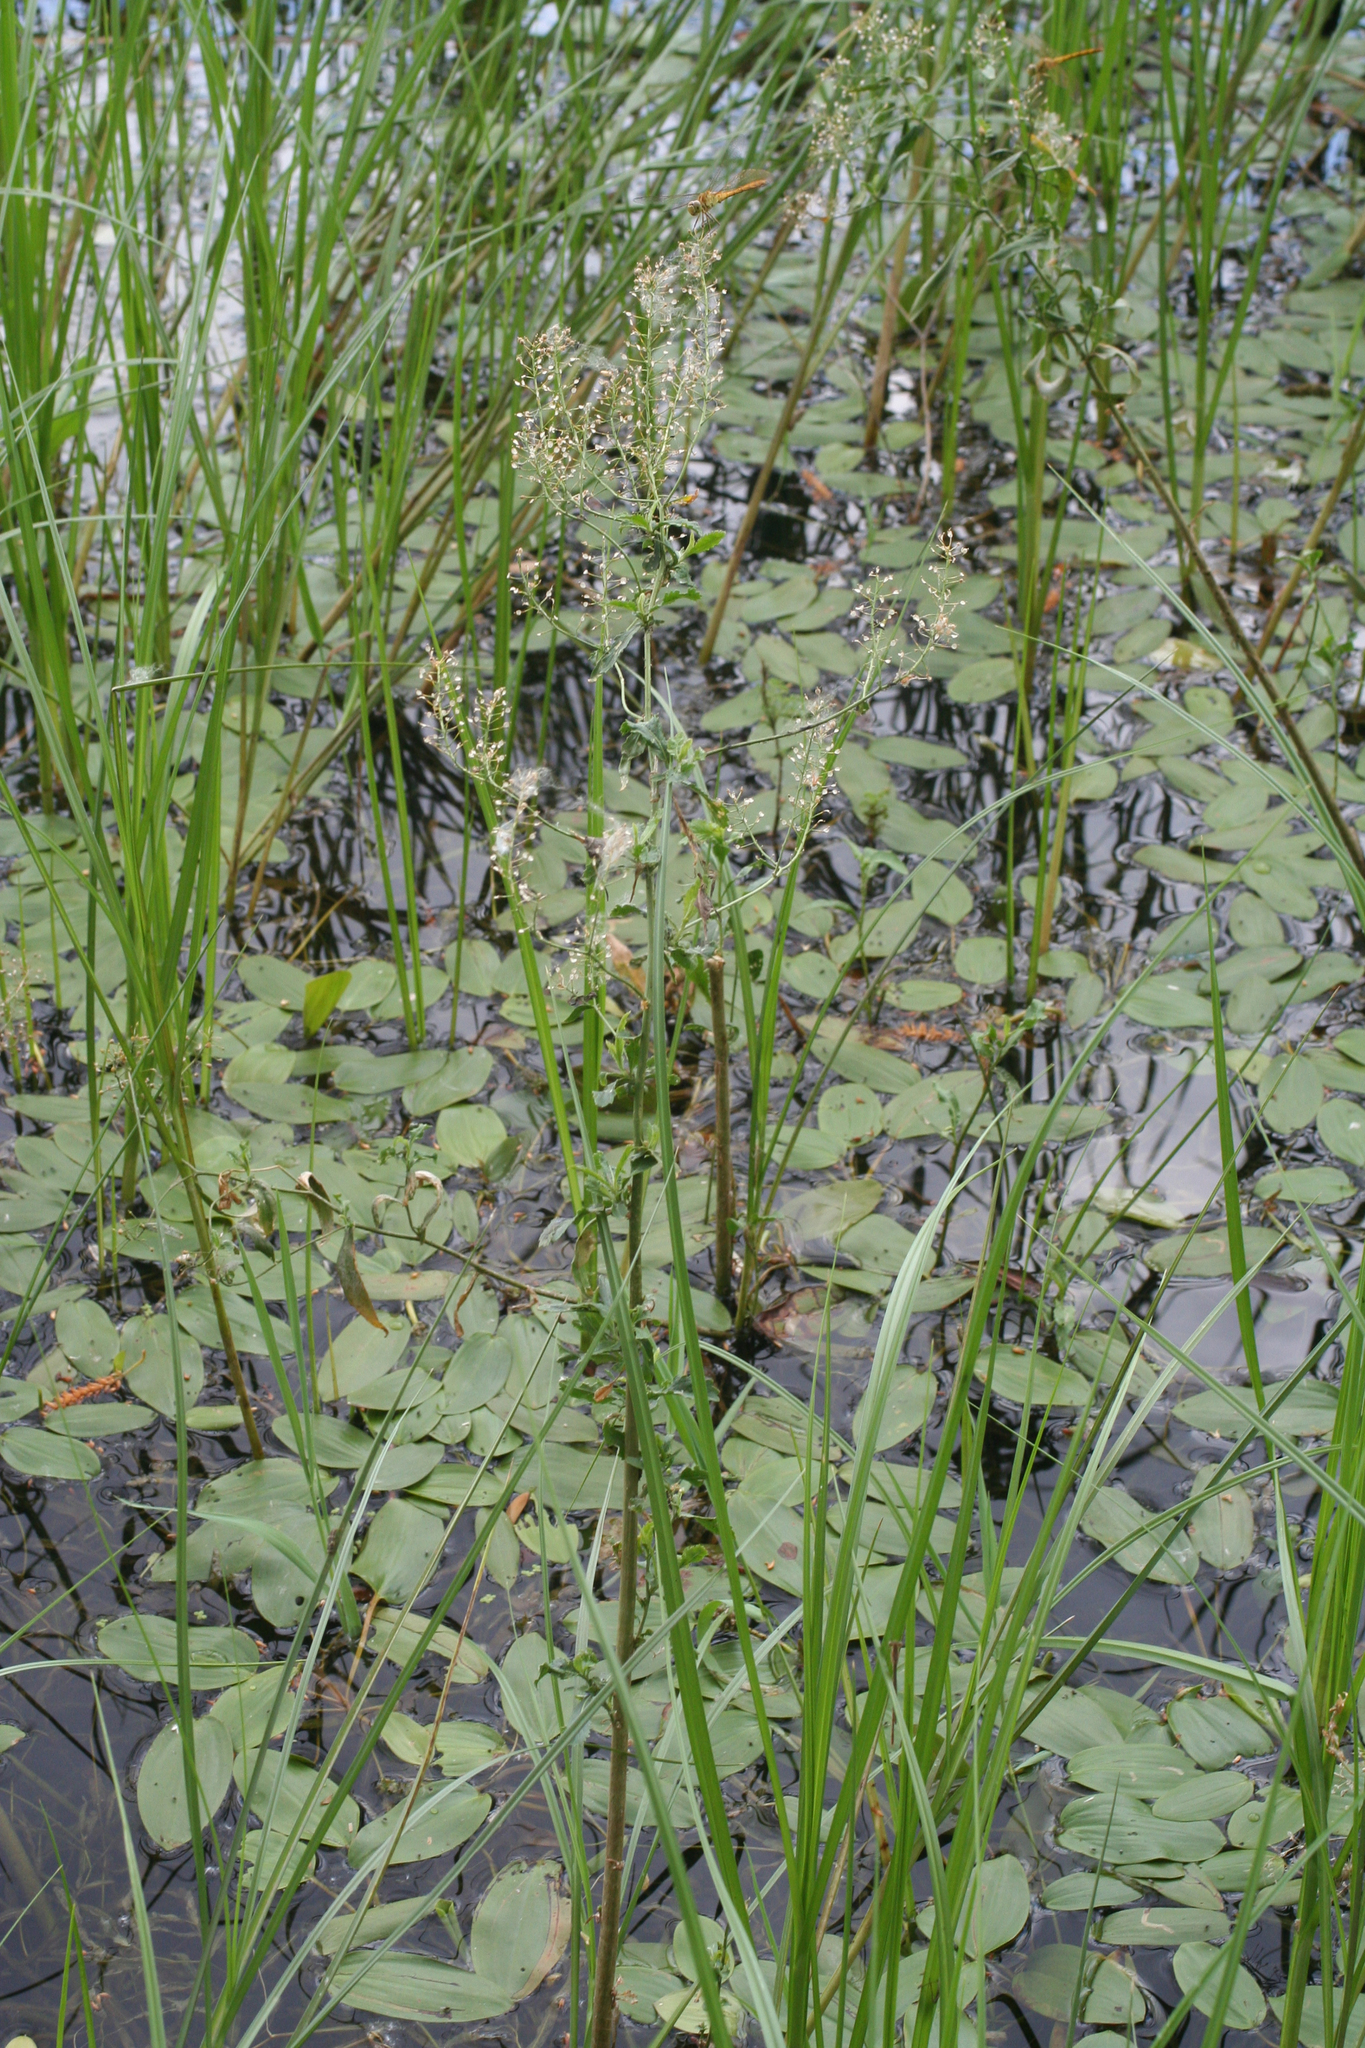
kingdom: Plantae
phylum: Tracheophyta
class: Liliopsida
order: Alismatales
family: Potamogetonaceae
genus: Potamogeton
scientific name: Potamogeton gramineus
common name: Various-leaved pondweed
